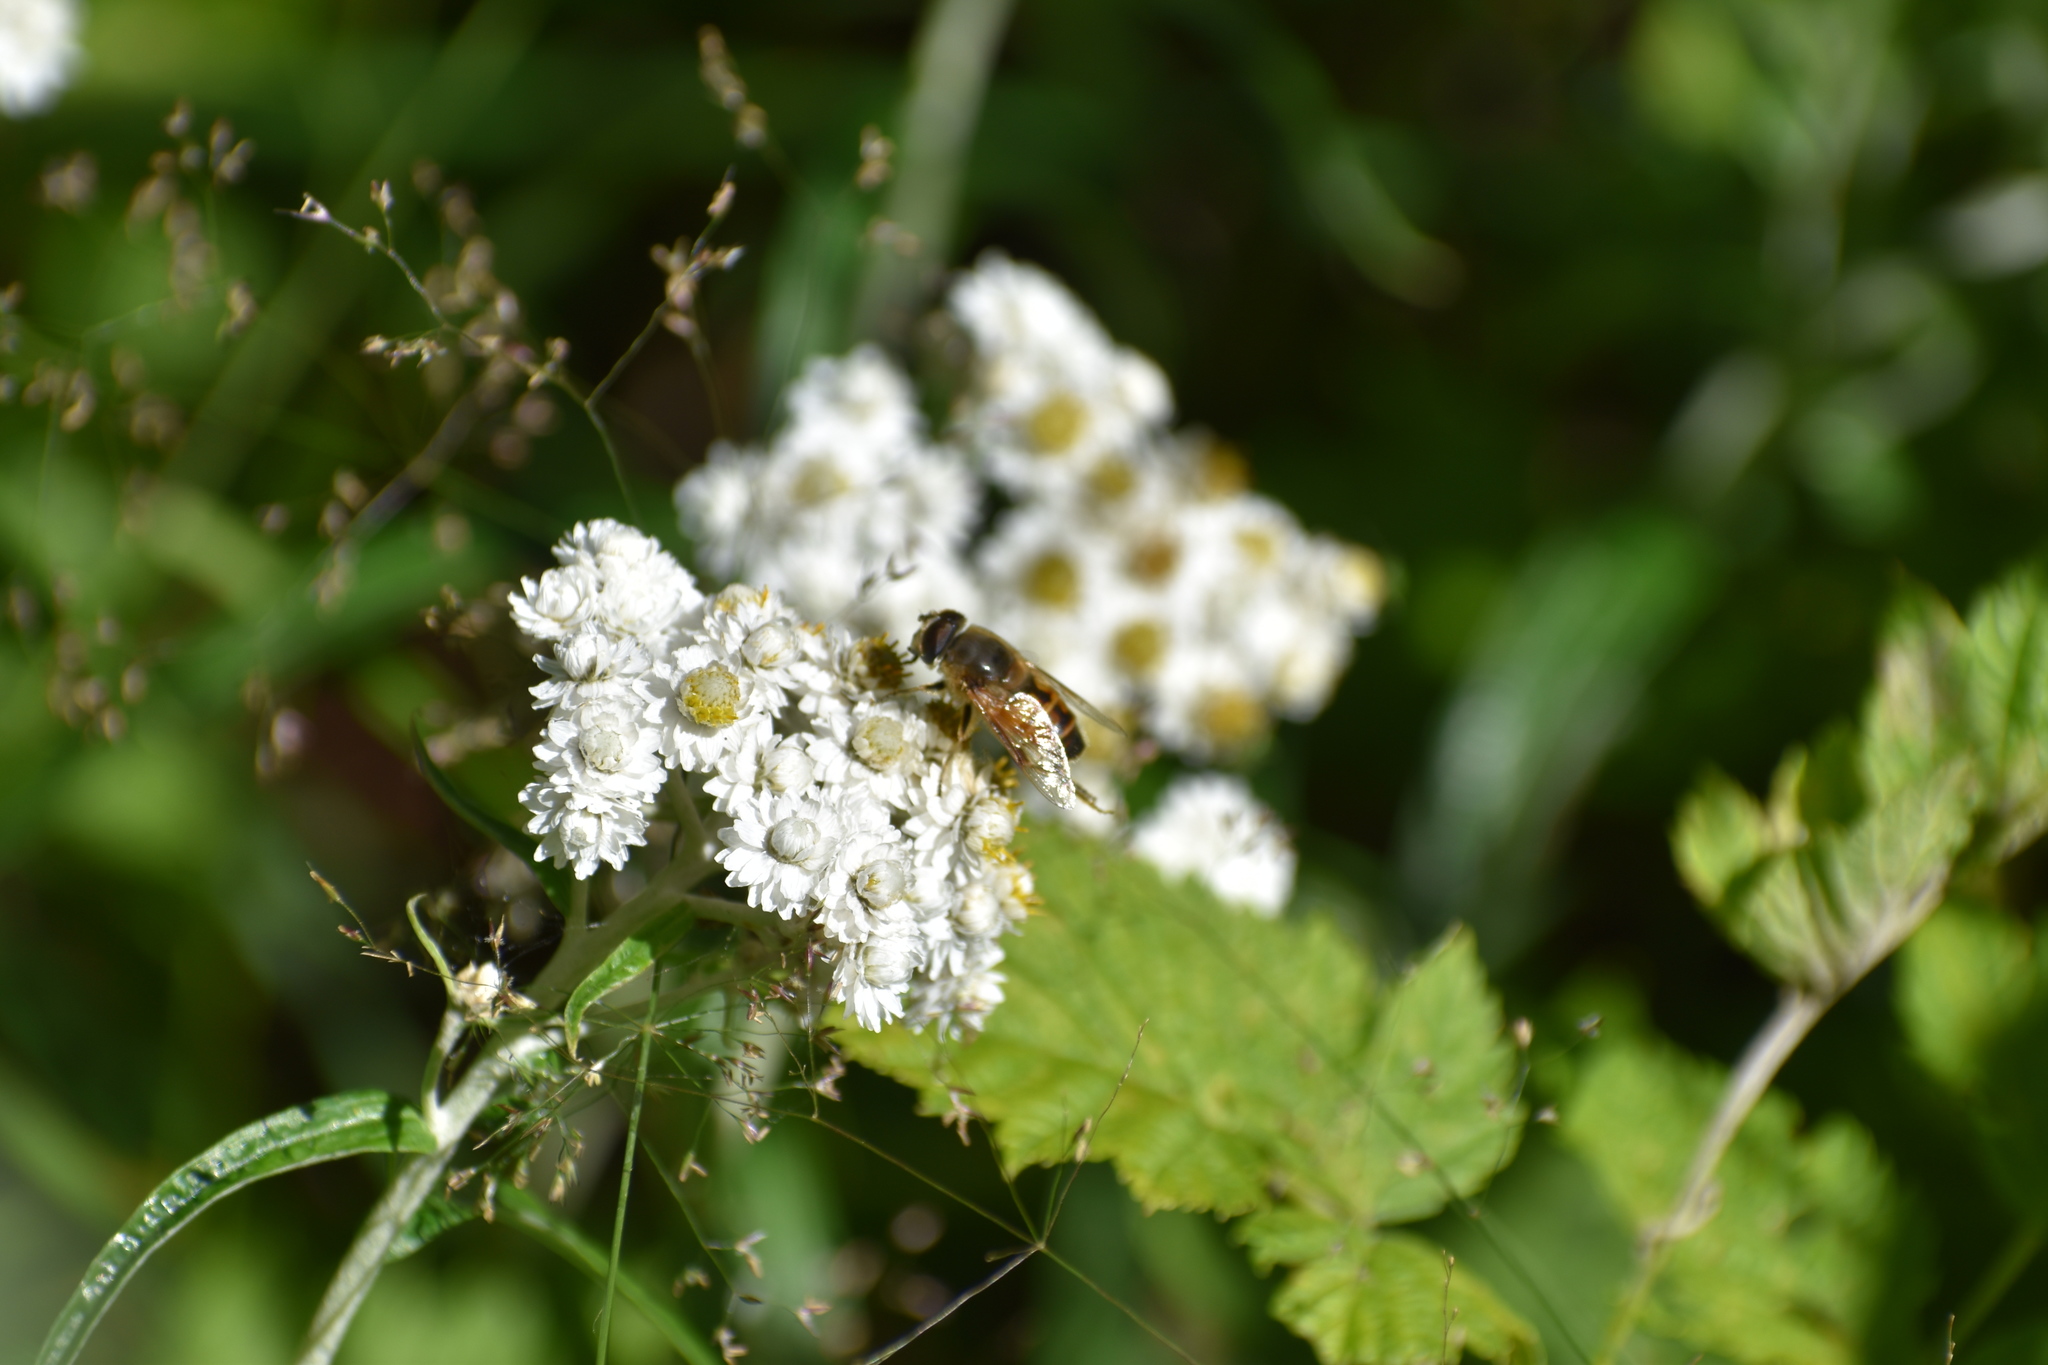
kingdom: Animalia
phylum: Arthropoda
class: Insecta
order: Diptera
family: Syrphidae
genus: Eristalis
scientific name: Eristalis tenax
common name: Drone fly
